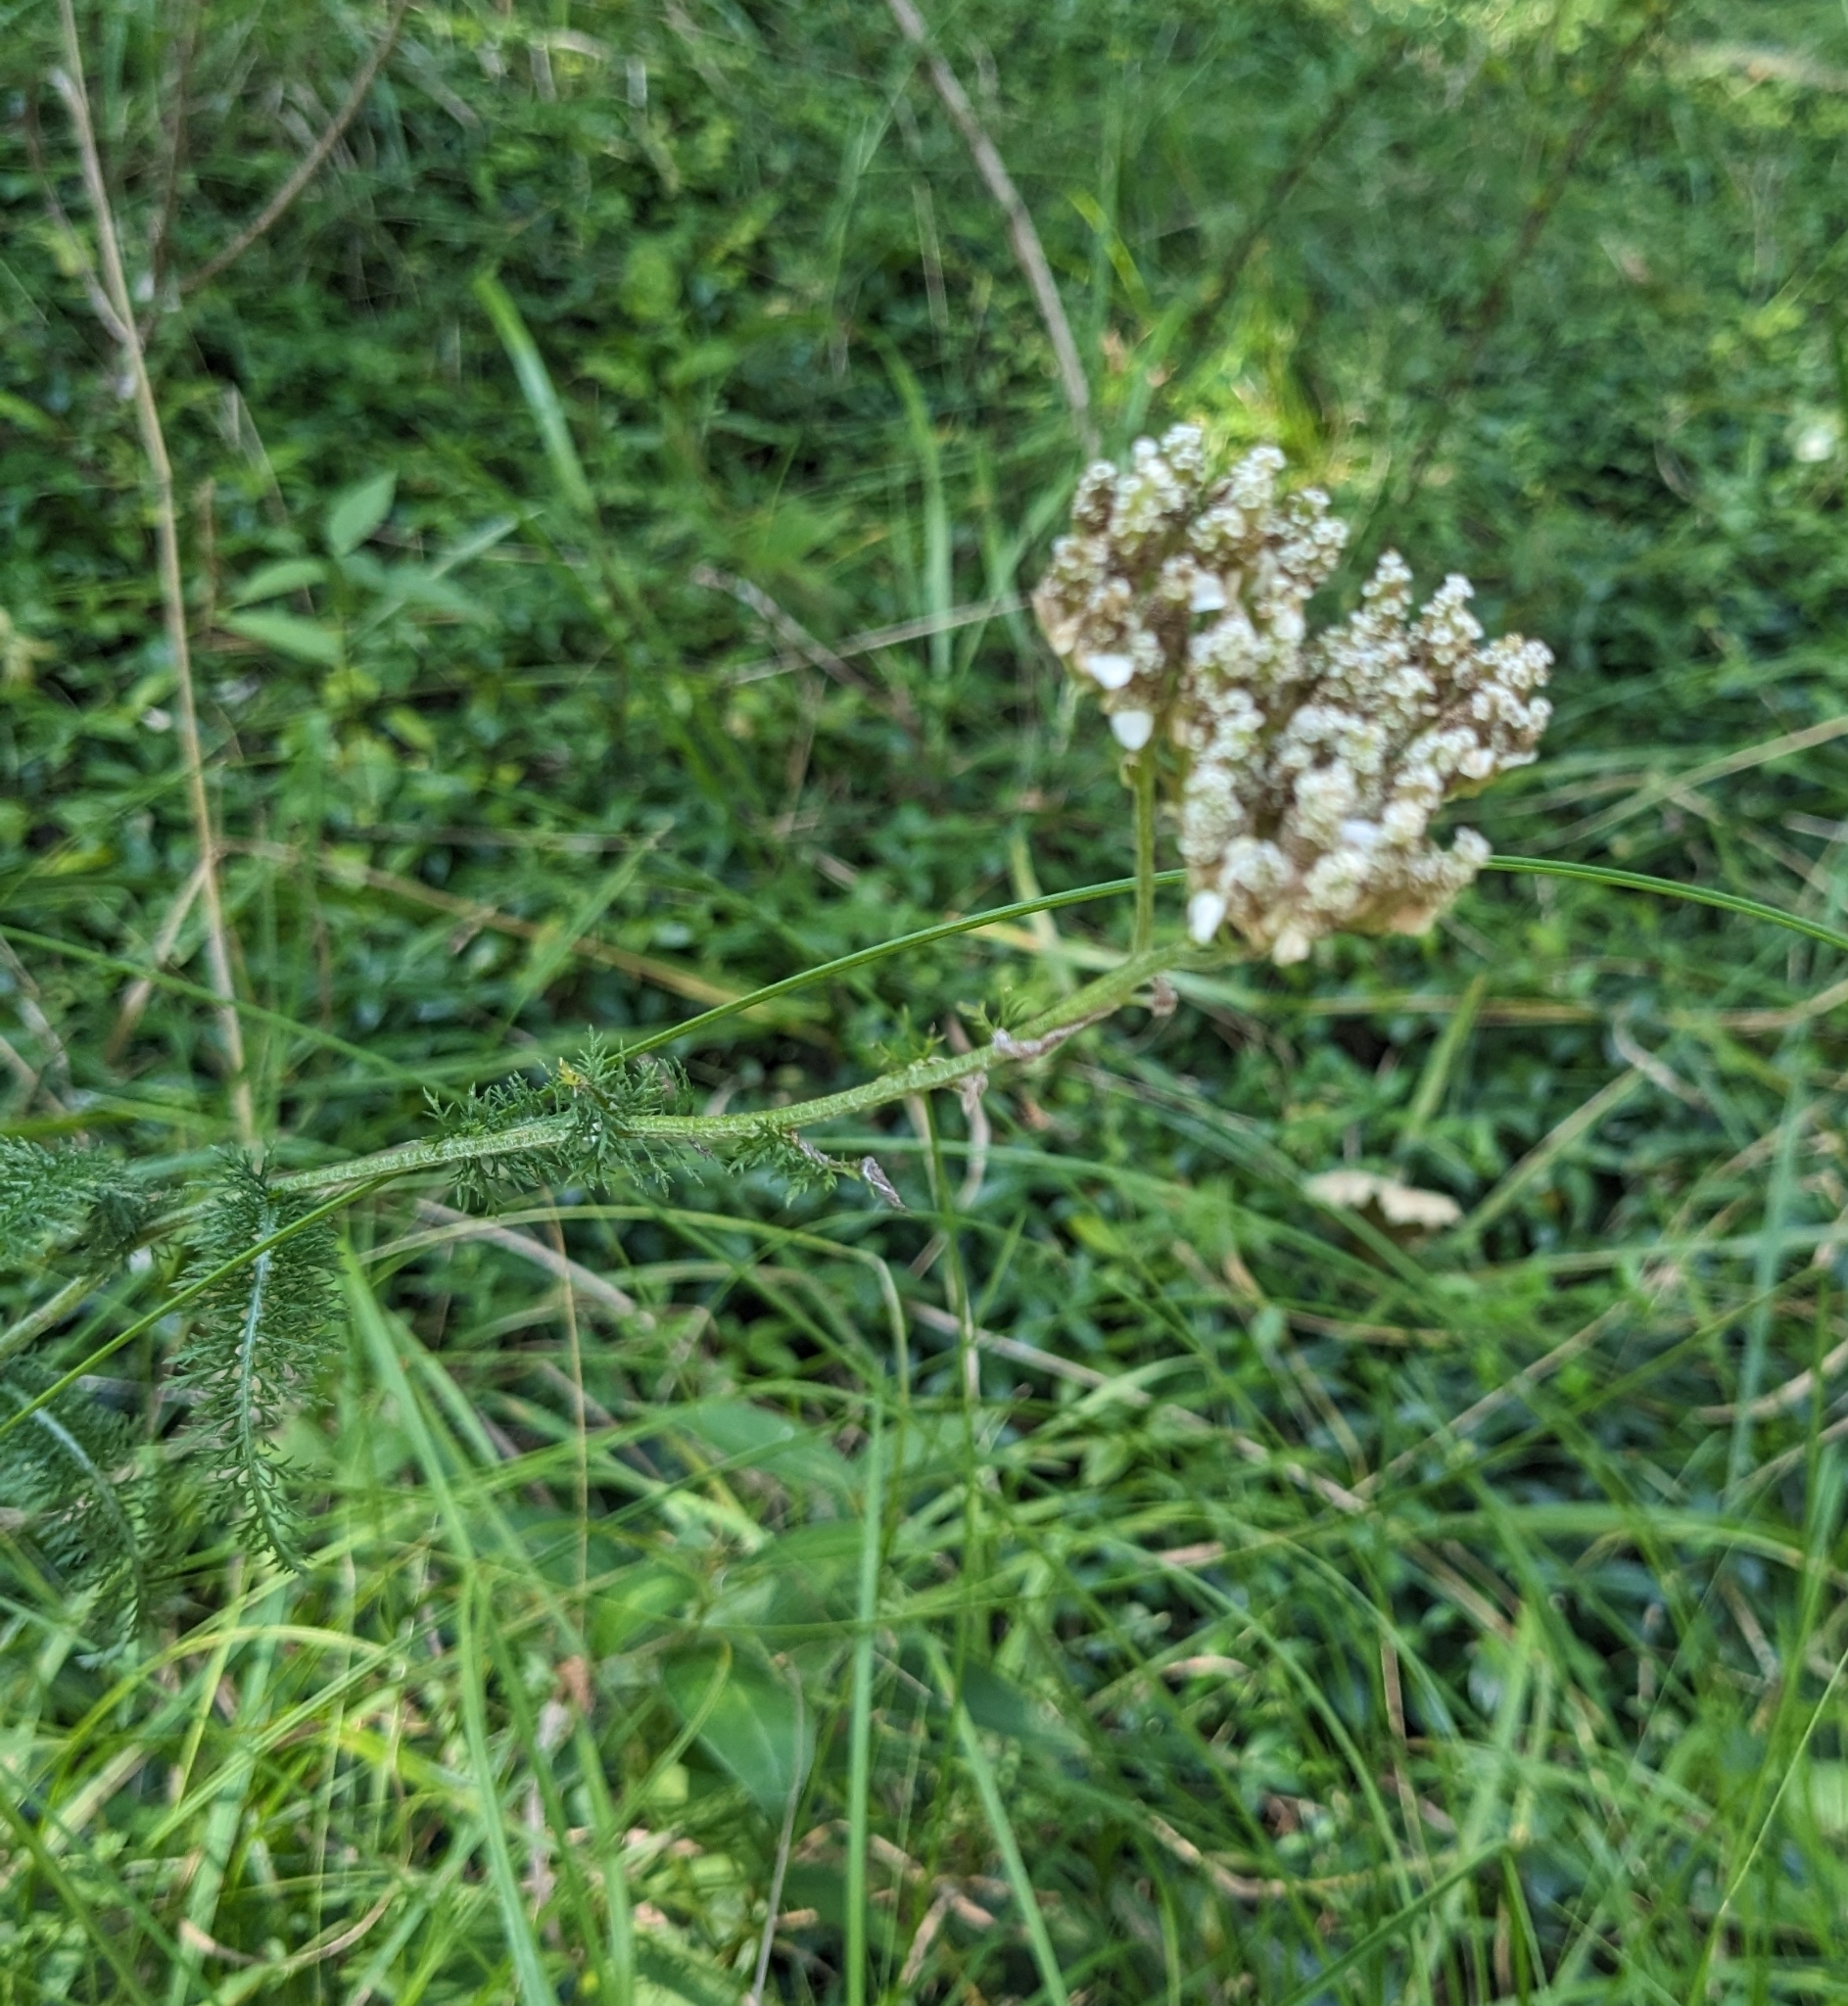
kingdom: Plantae
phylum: Tracheophyta
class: Magnoliopsida
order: Asterales
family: Asteraceae
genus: Achillea
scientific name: Achillea millefolium
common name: Yarrow
